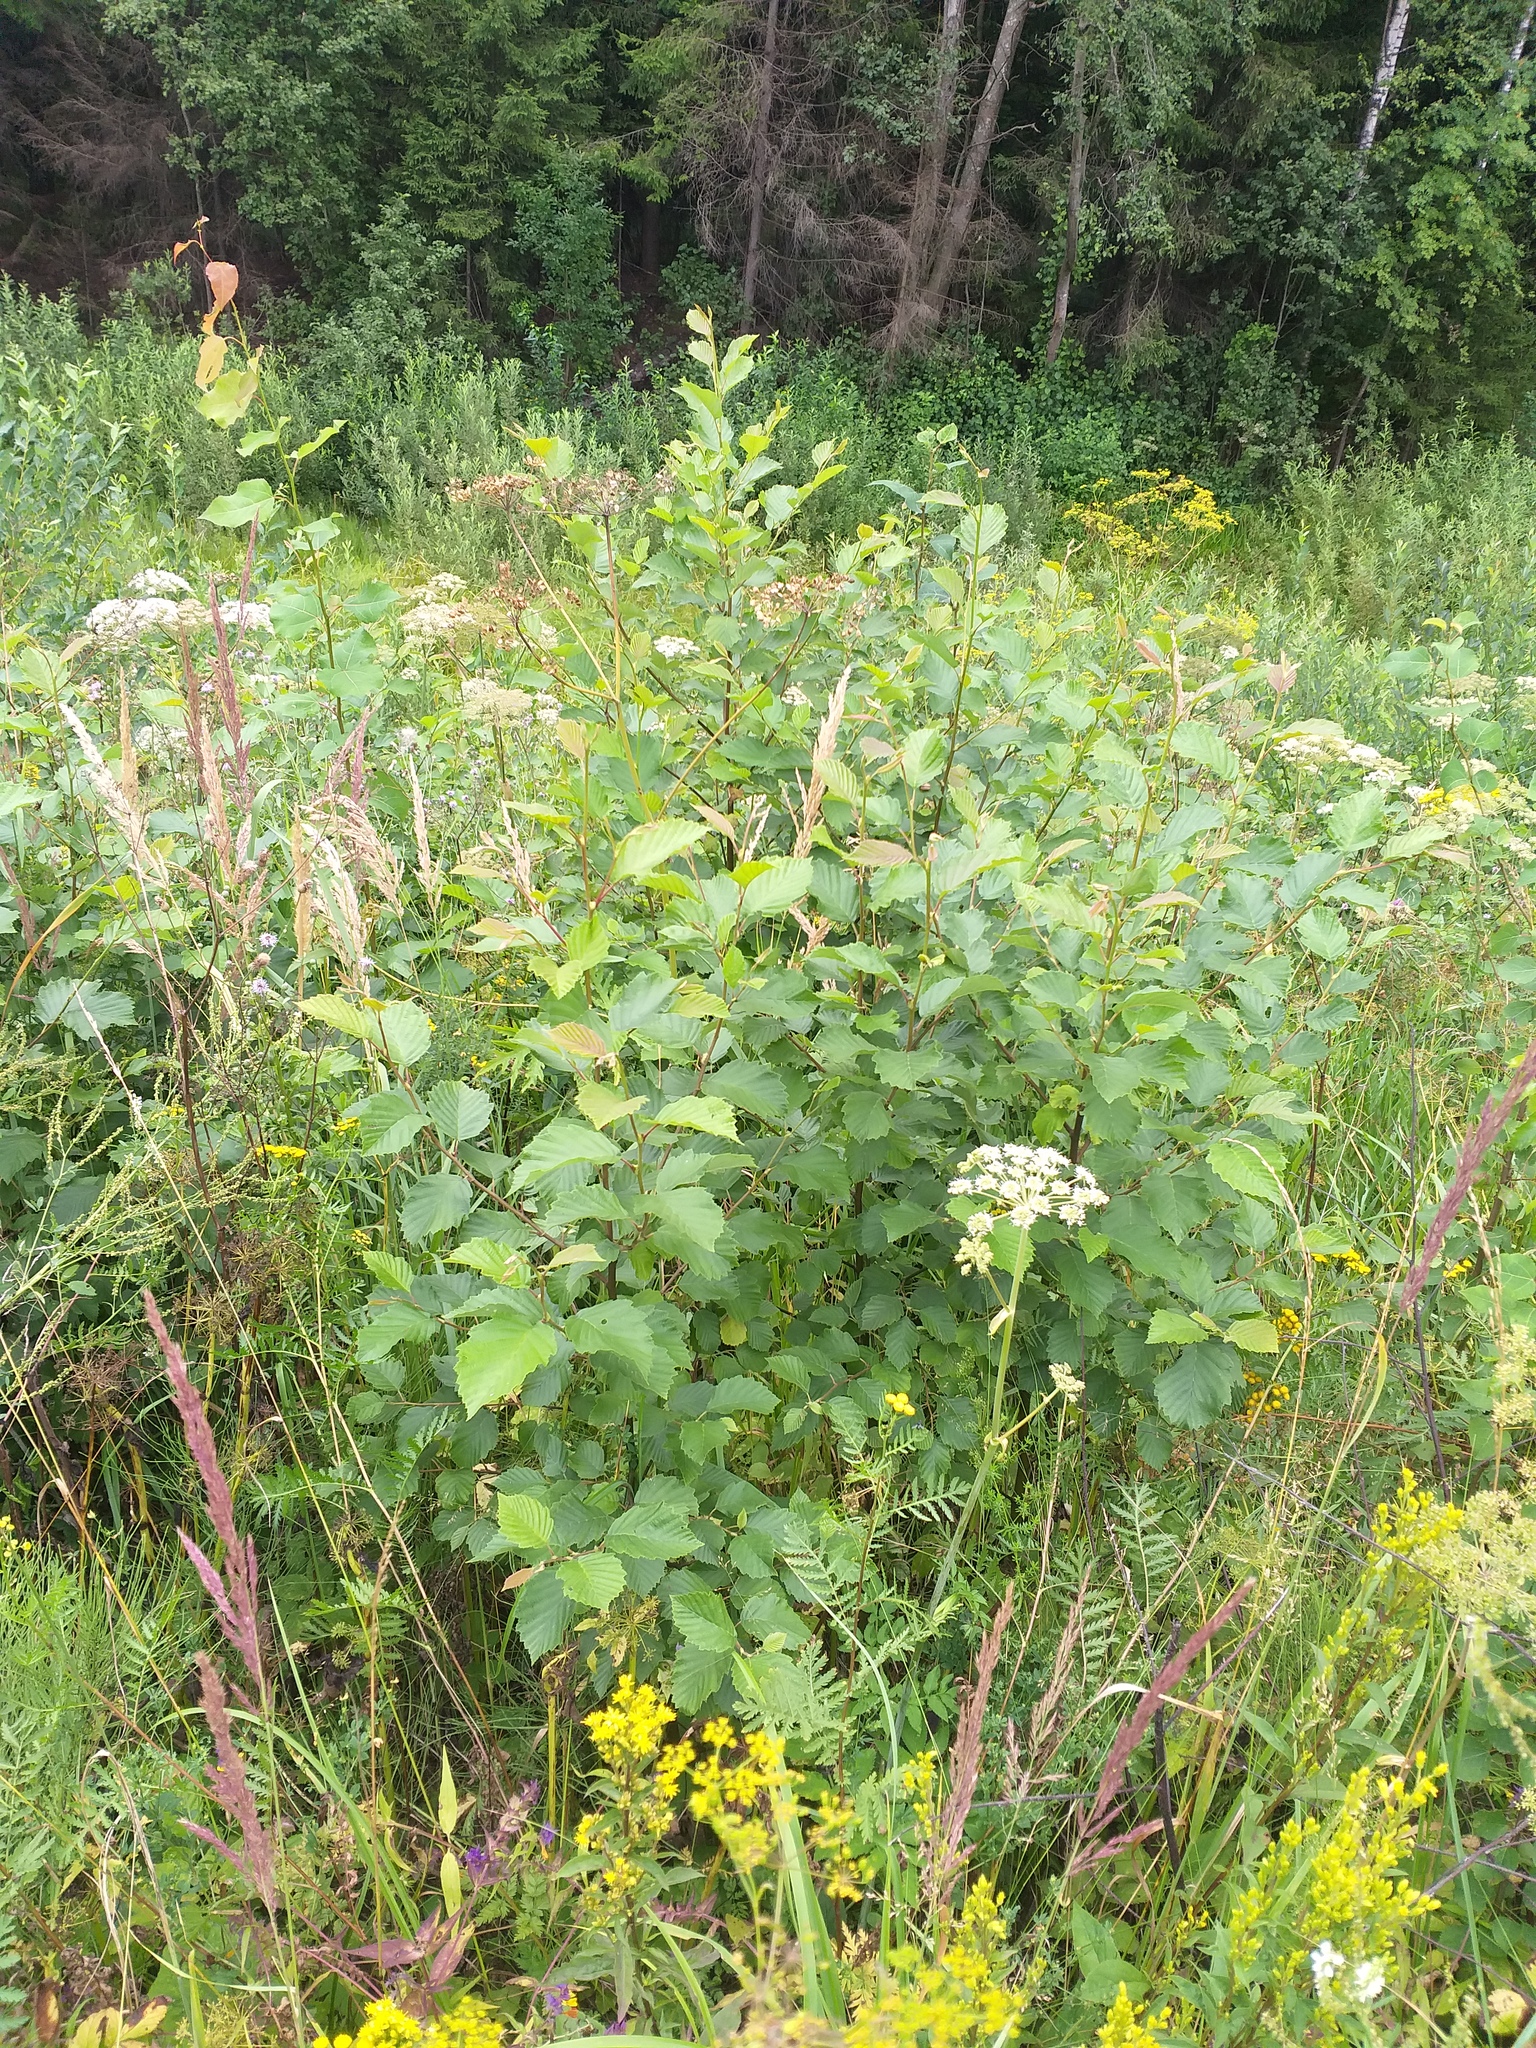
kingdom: Plantae
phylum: Tracheophyta
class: Magnoliopsida
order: Fagales
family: Betulaceae
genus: Alnus
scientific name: Alnus incana
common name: Grey alder
